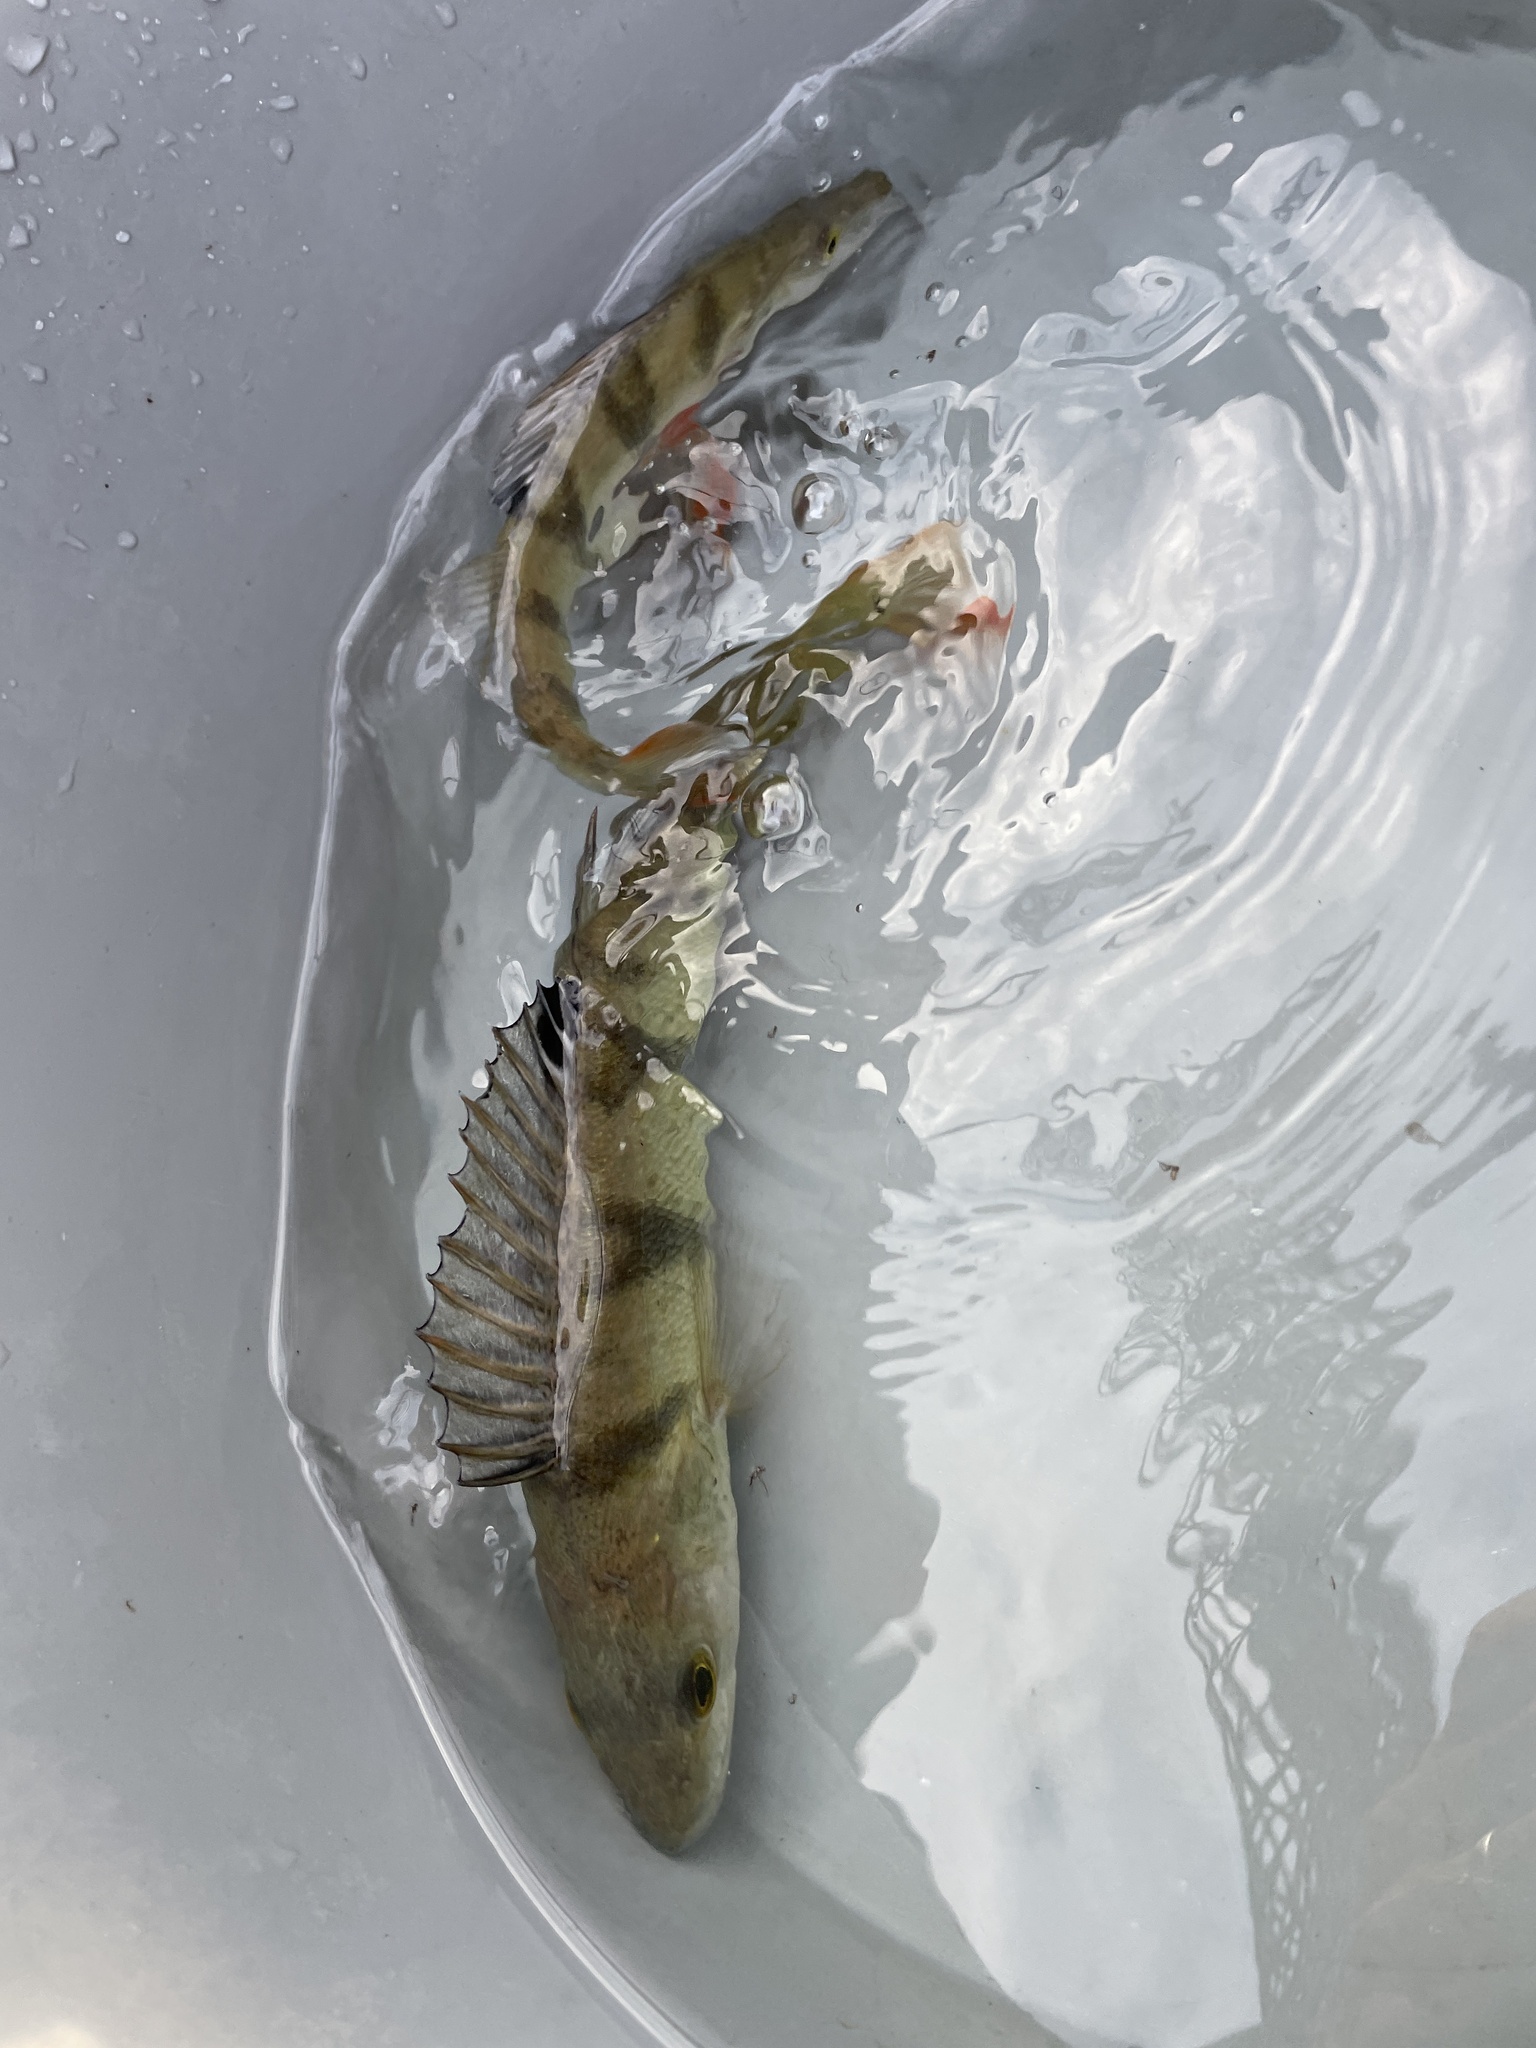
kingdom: Animalia
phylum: Chordata
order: Perciformes
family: Percidae
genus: Perca
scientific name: Perca fluviatilis
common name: Perch
